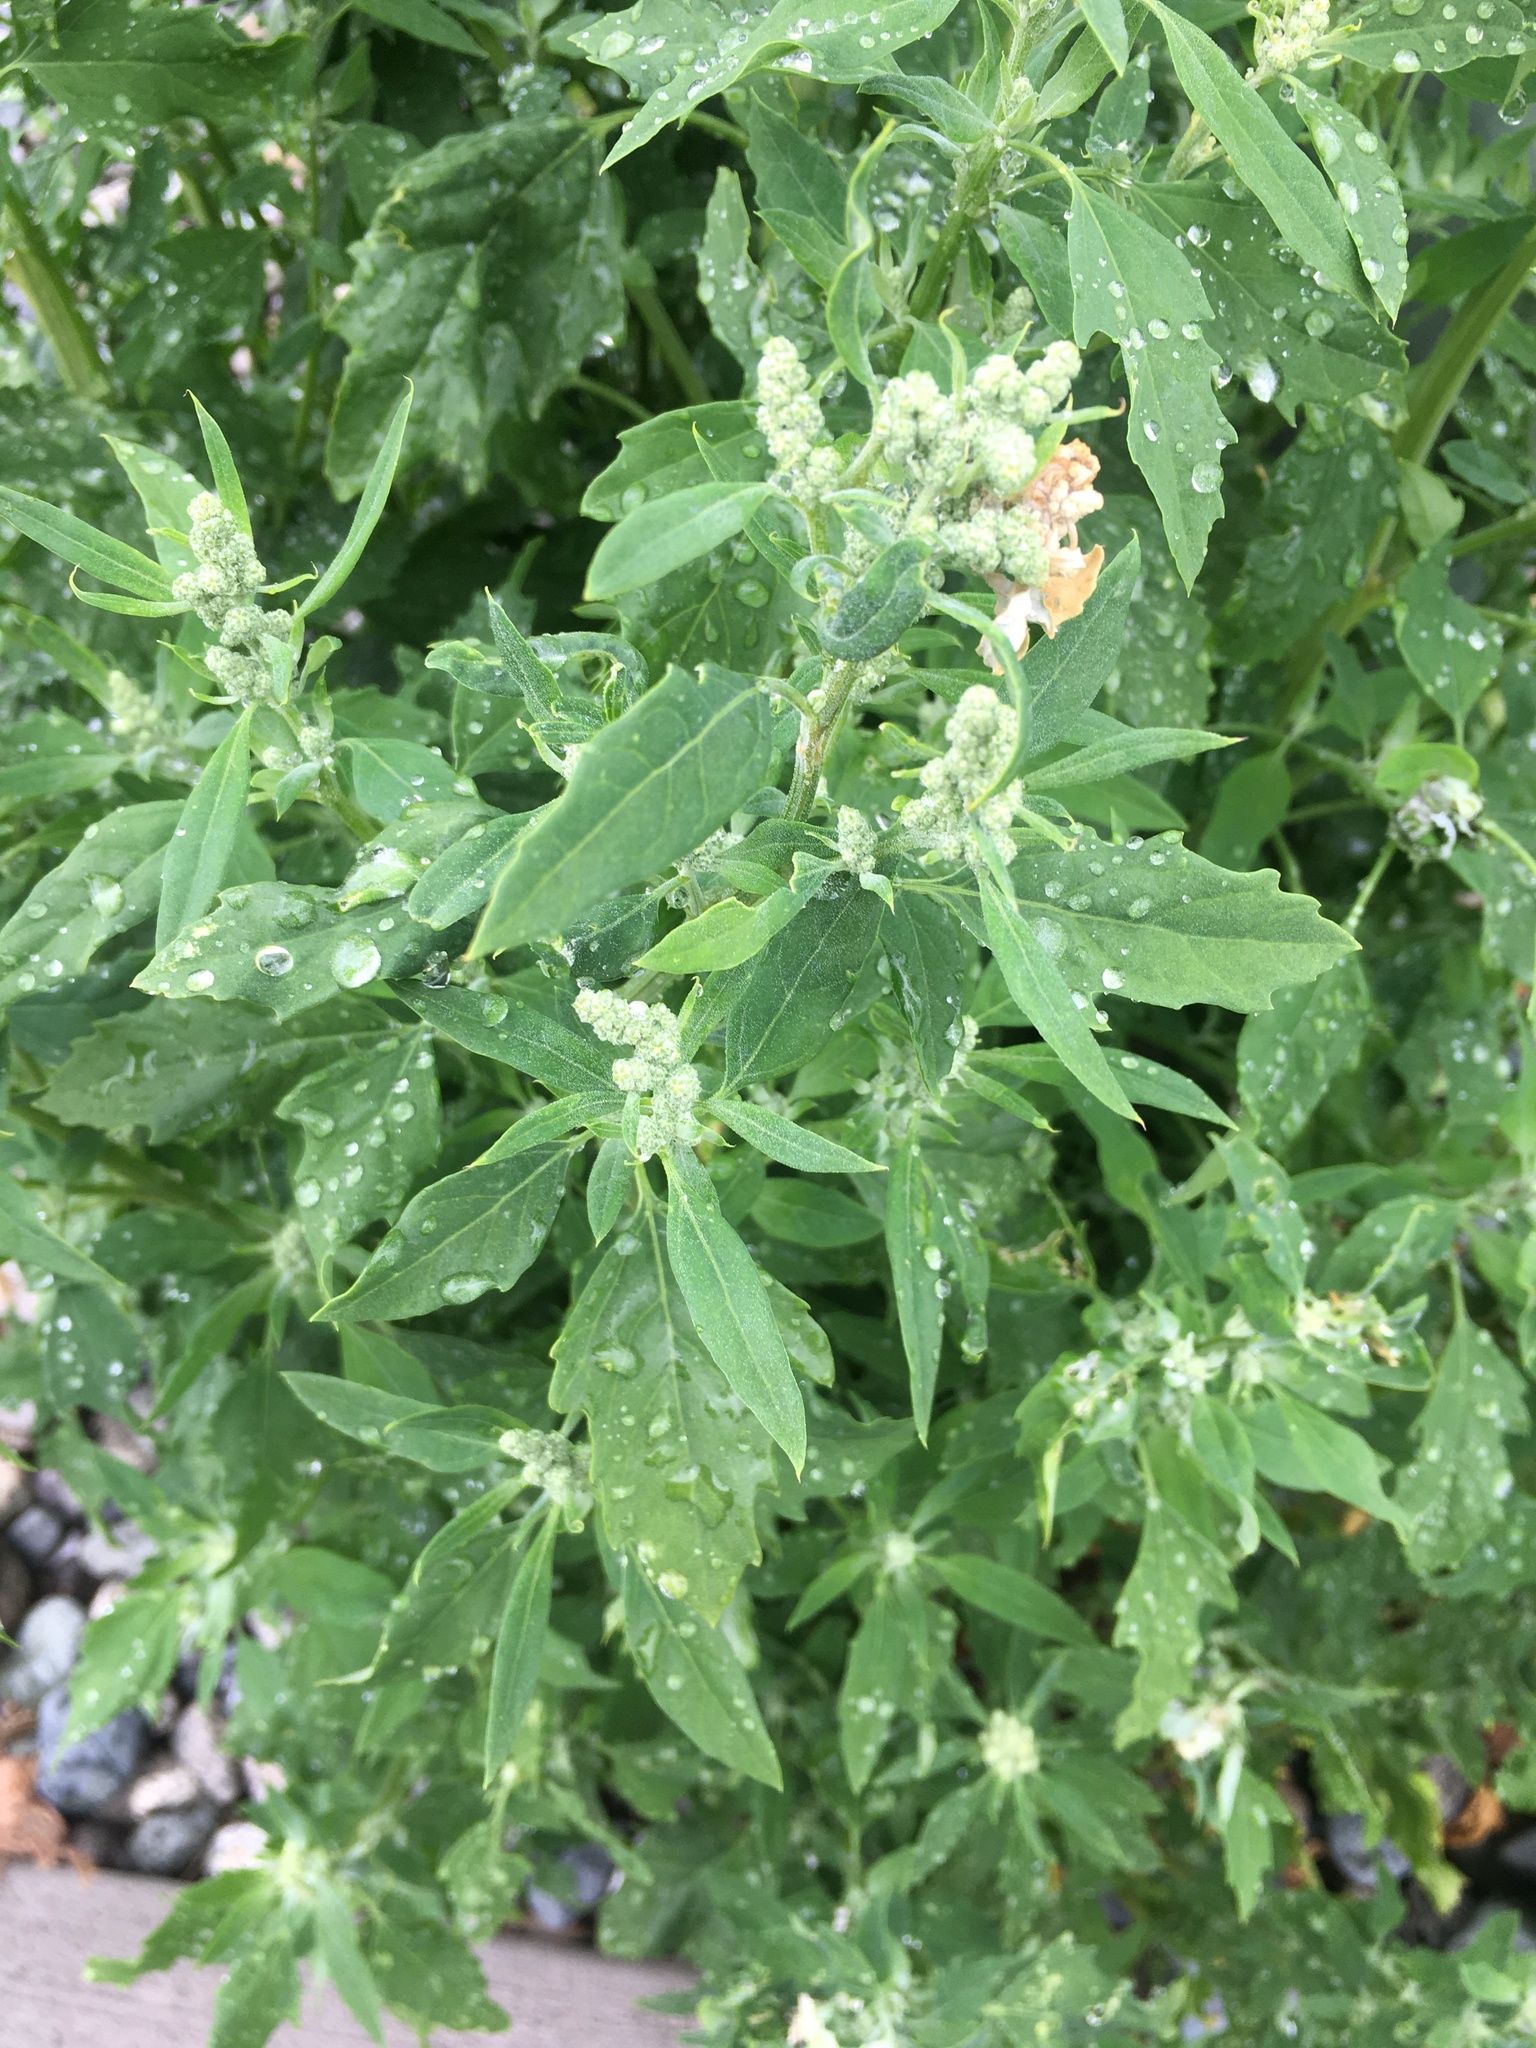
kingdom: Plantae
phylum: Tracheophyta
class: Magnoliopsida
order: Caryophyllales
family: Amaranthaceae
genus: Chenopodium
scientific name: Chenopodium album
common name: Fat-hen
